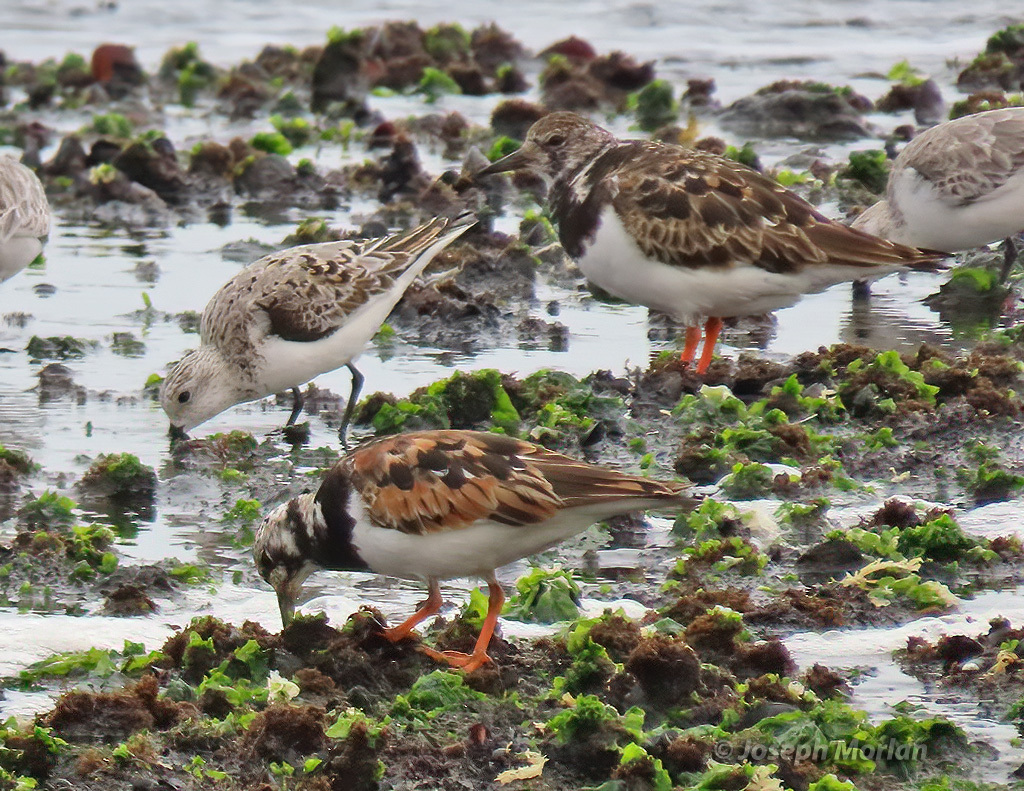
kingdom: Animalia
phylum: Chordata
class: Aves
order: Charadriiformes
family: Scolopacidae
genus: Arenaria
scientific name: Arenaria interpres
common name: Ruddy turnstone
